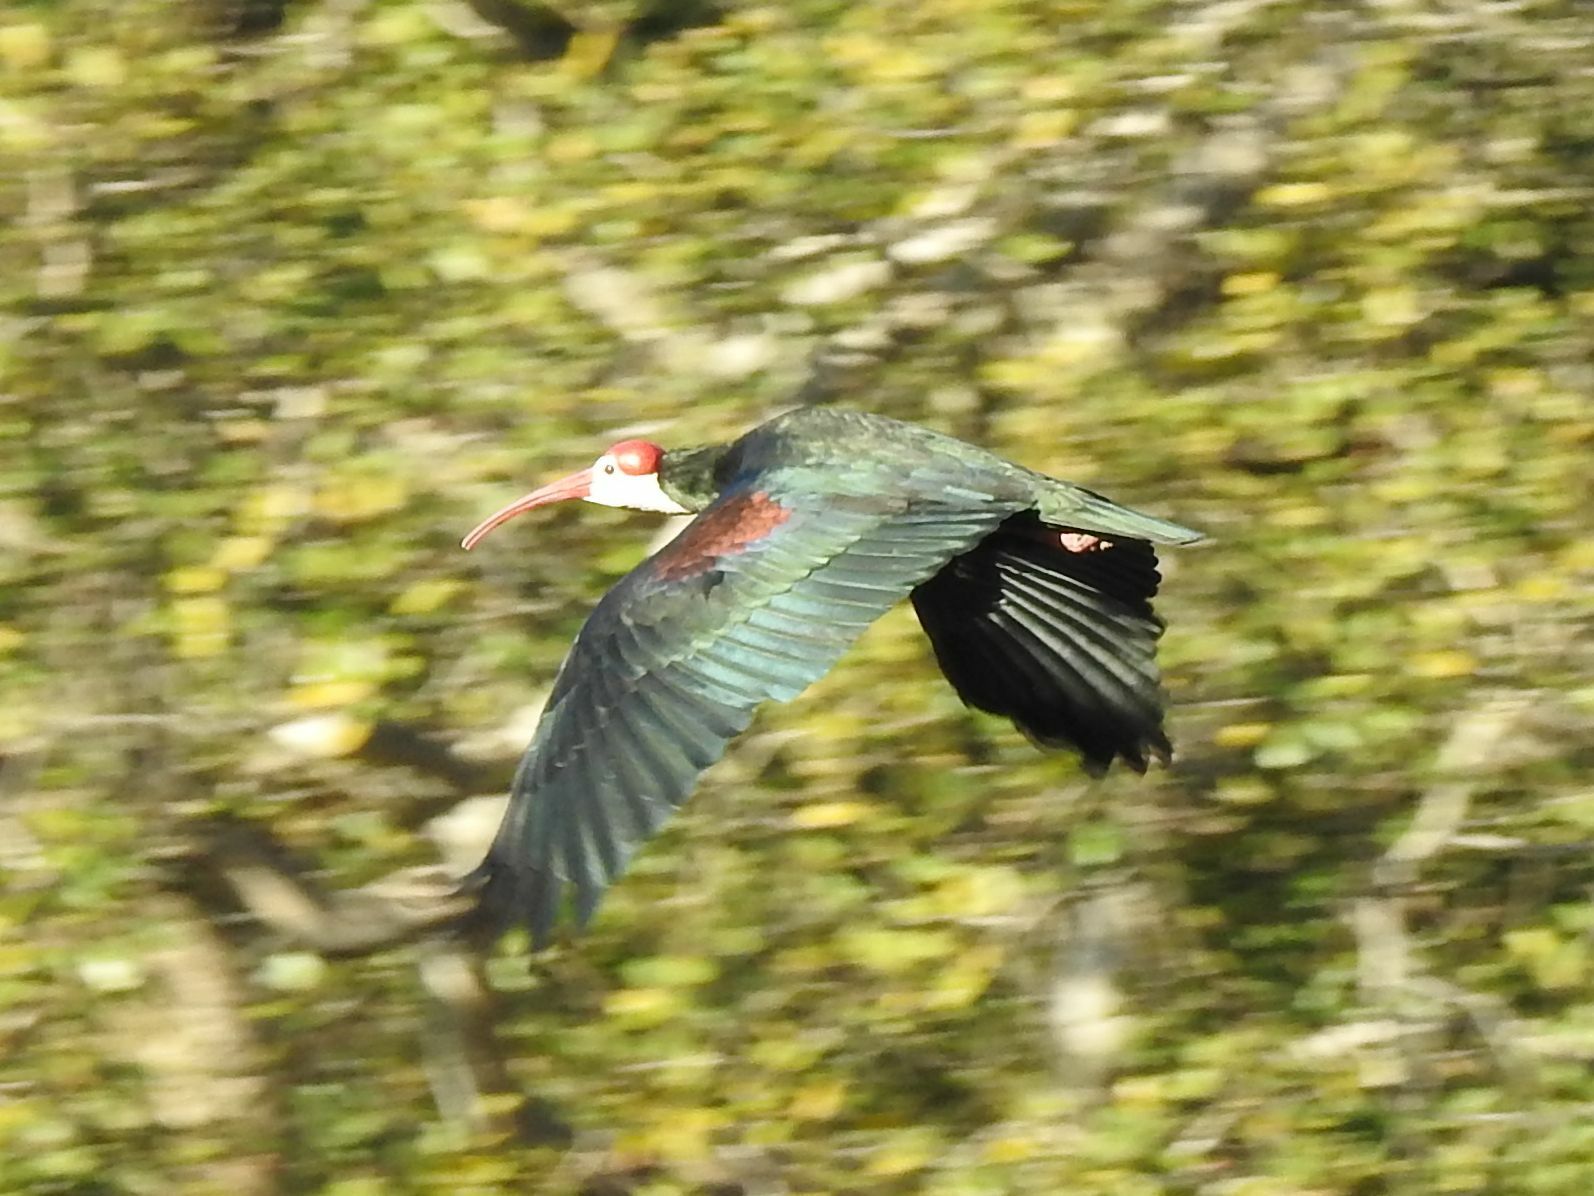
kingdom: Animalia
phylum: Chordata
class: Aves
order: Pelecaniformes
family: Threskiornithidae
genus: Geronticus
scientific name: Geronticus calvus
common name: Southern bald ibis
